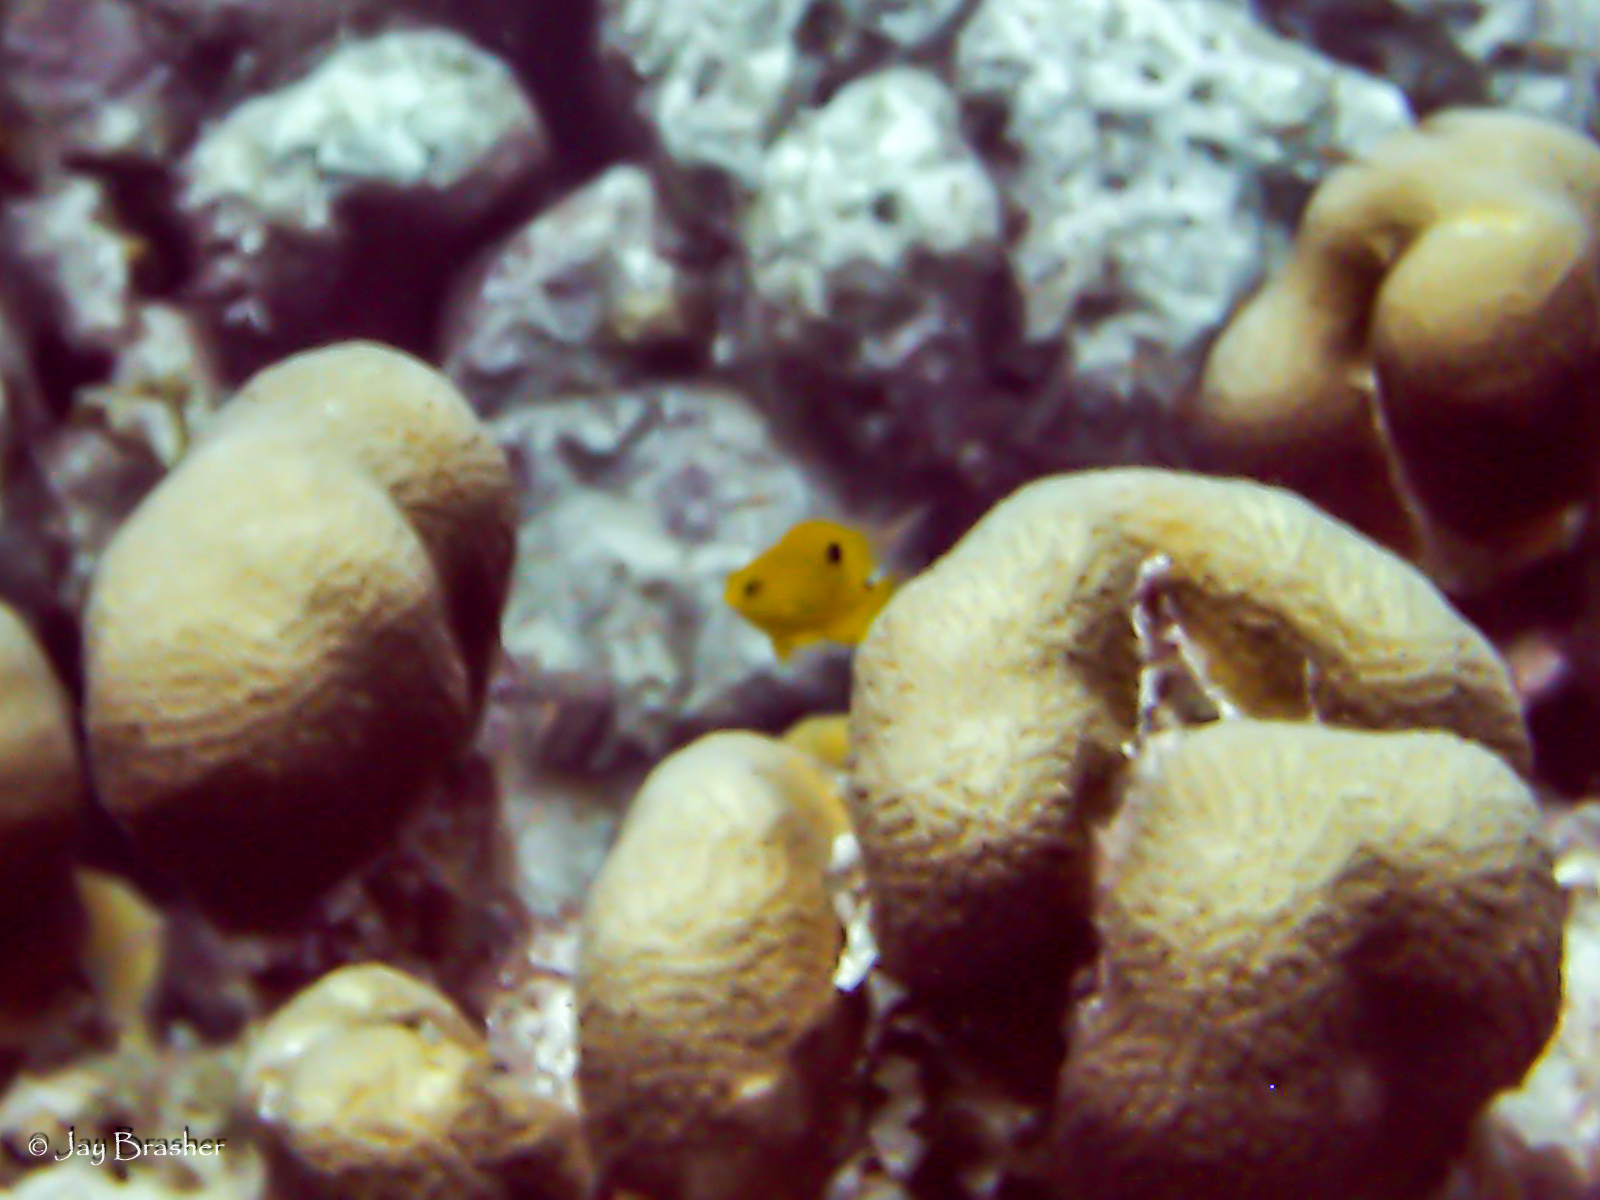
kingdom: Animalia
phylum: Chordata
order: Perciformes
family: Pomacentridae
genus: Stegastes
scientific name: Stegastes planifrons
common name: Threespot damselfish
